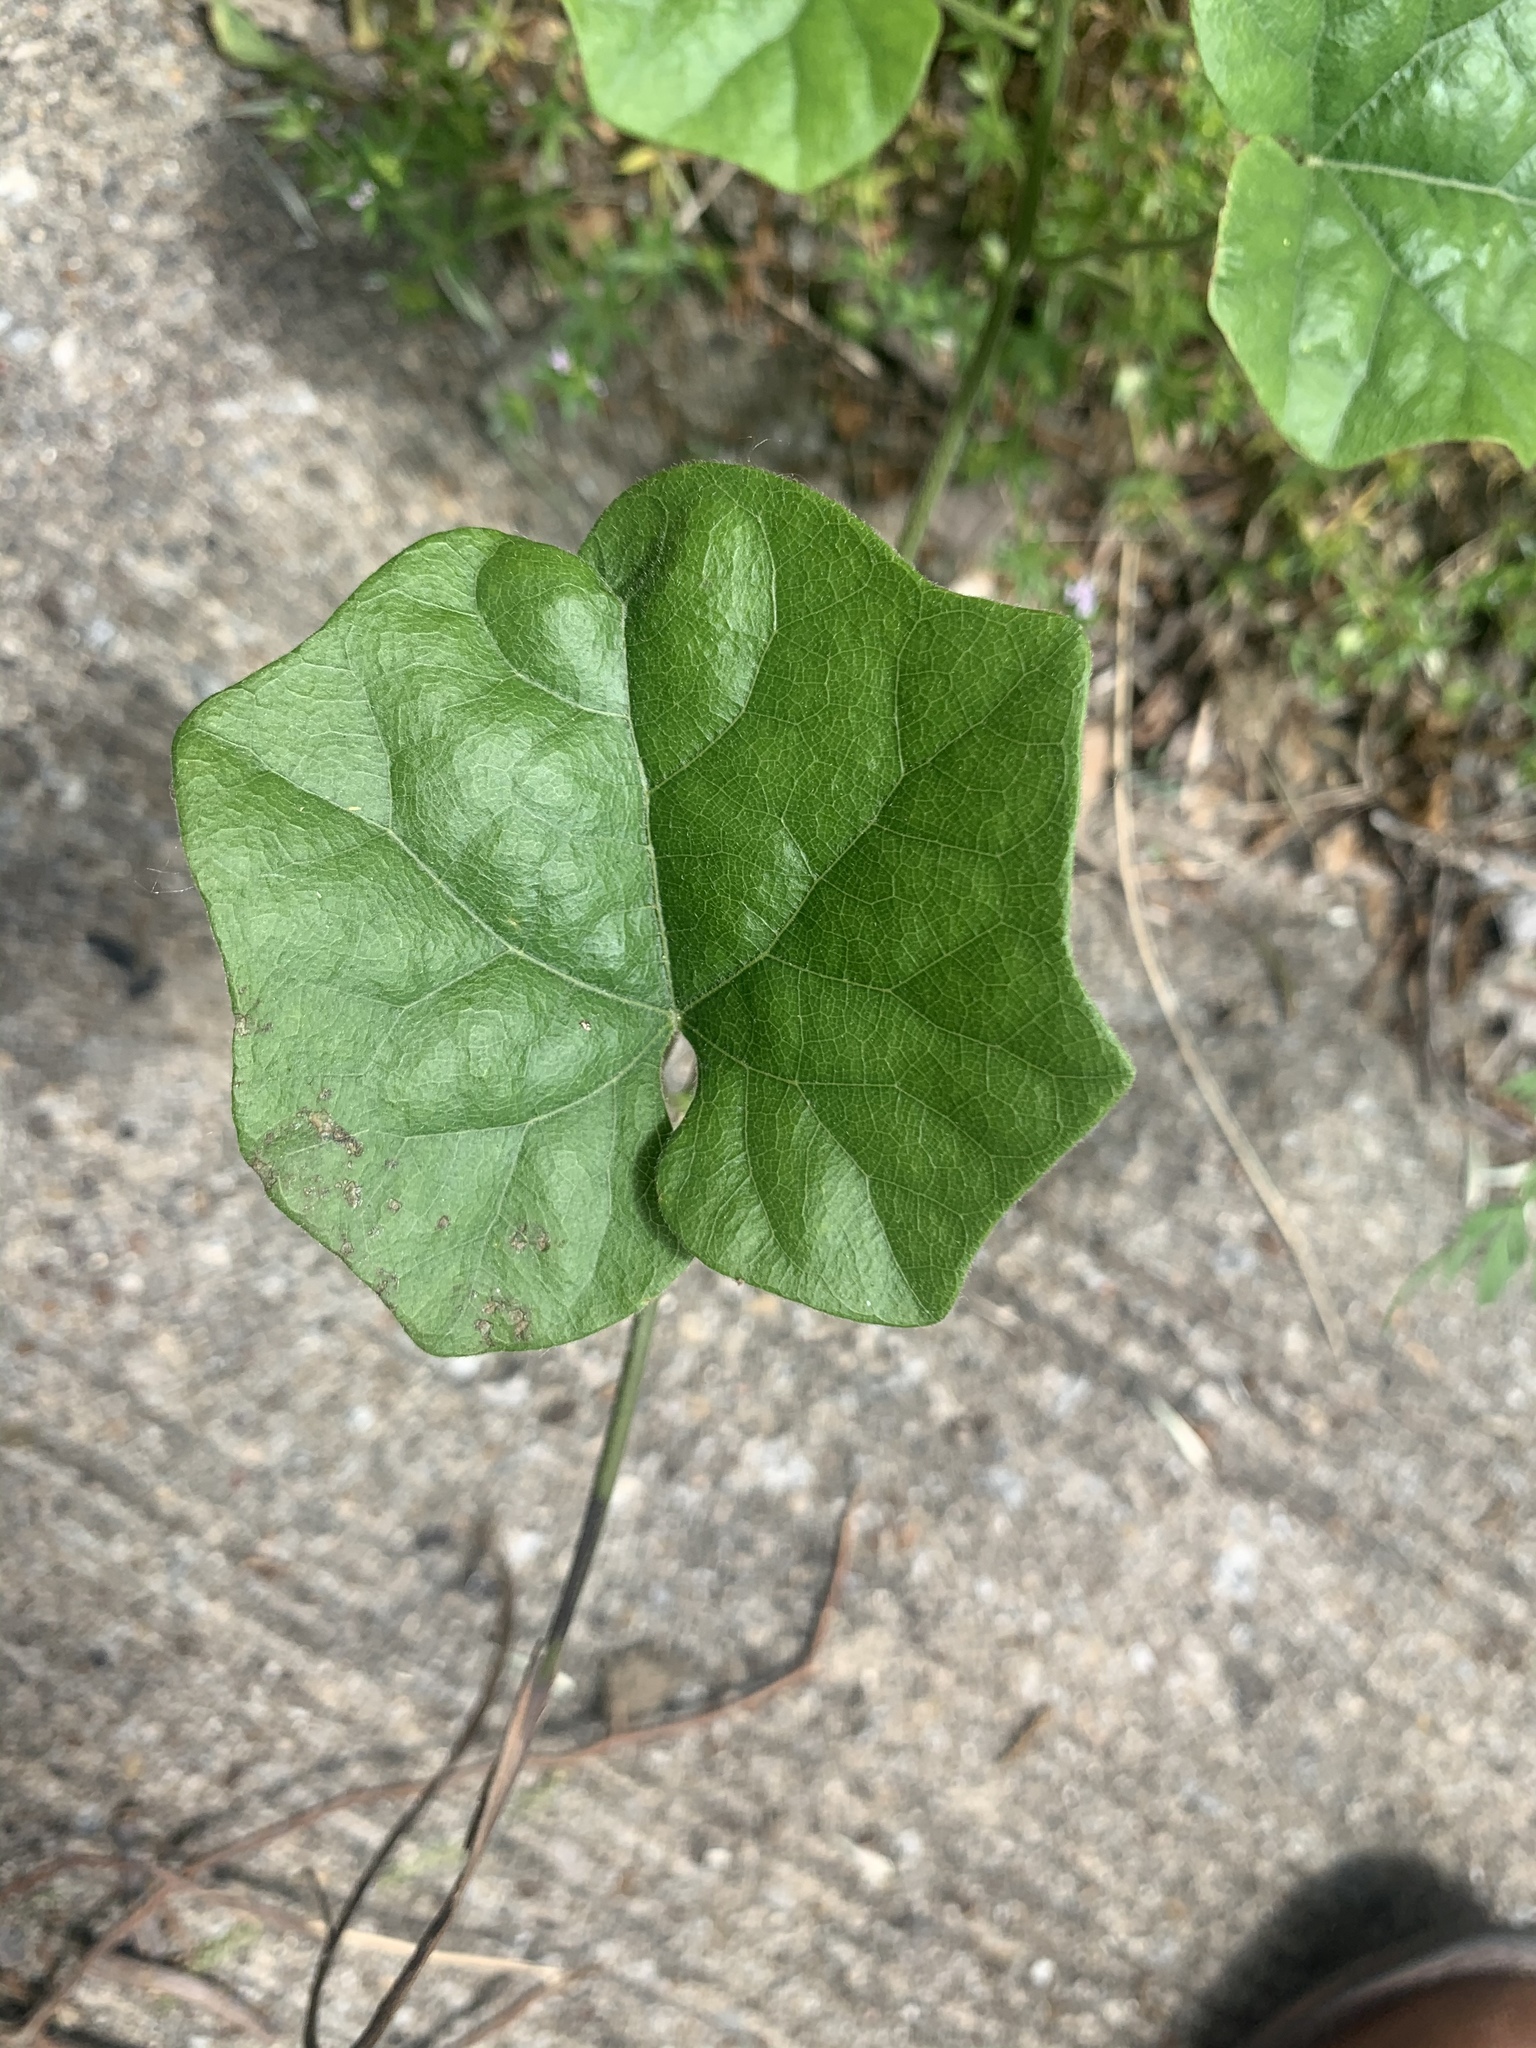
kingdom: Plantae
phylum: Tracheophyta
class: Magnoliopsida
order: Ranunculales
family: Menispermaceae
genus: Cocculus
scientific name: Cocculus carolinus
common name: Carolina moonseed
